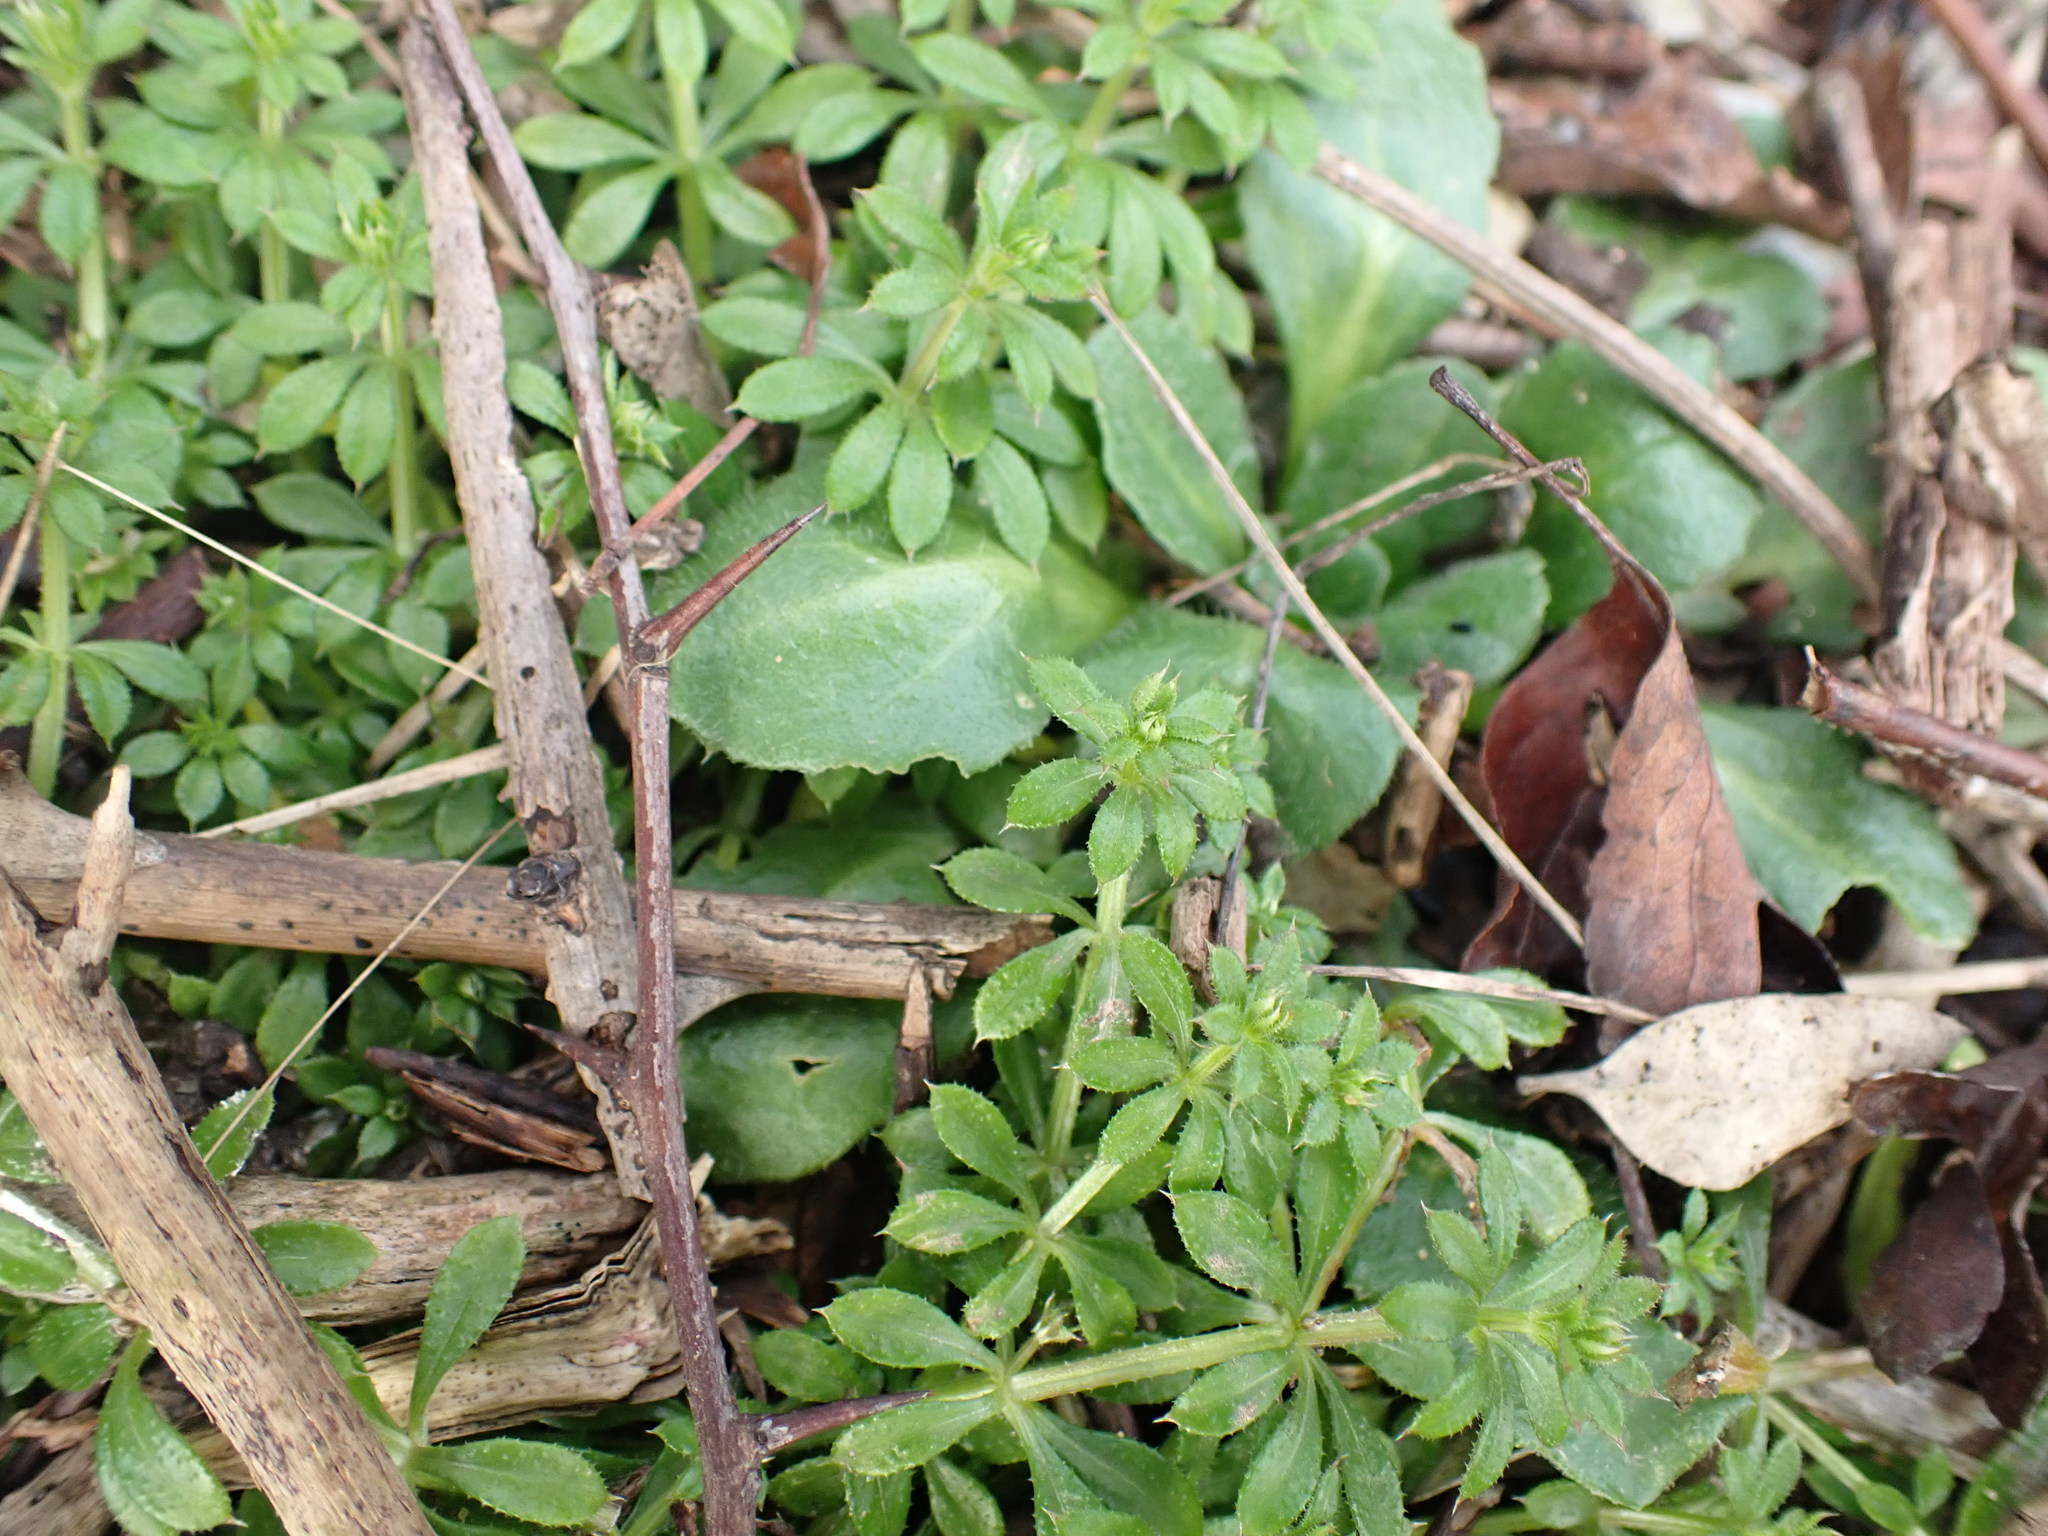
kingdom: Plantae
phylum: Tracheophyta
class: Magnoliopsida
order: Gentianales
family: Rubiaceae
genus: Galium
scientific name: Galium aparine
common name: Cleavers
